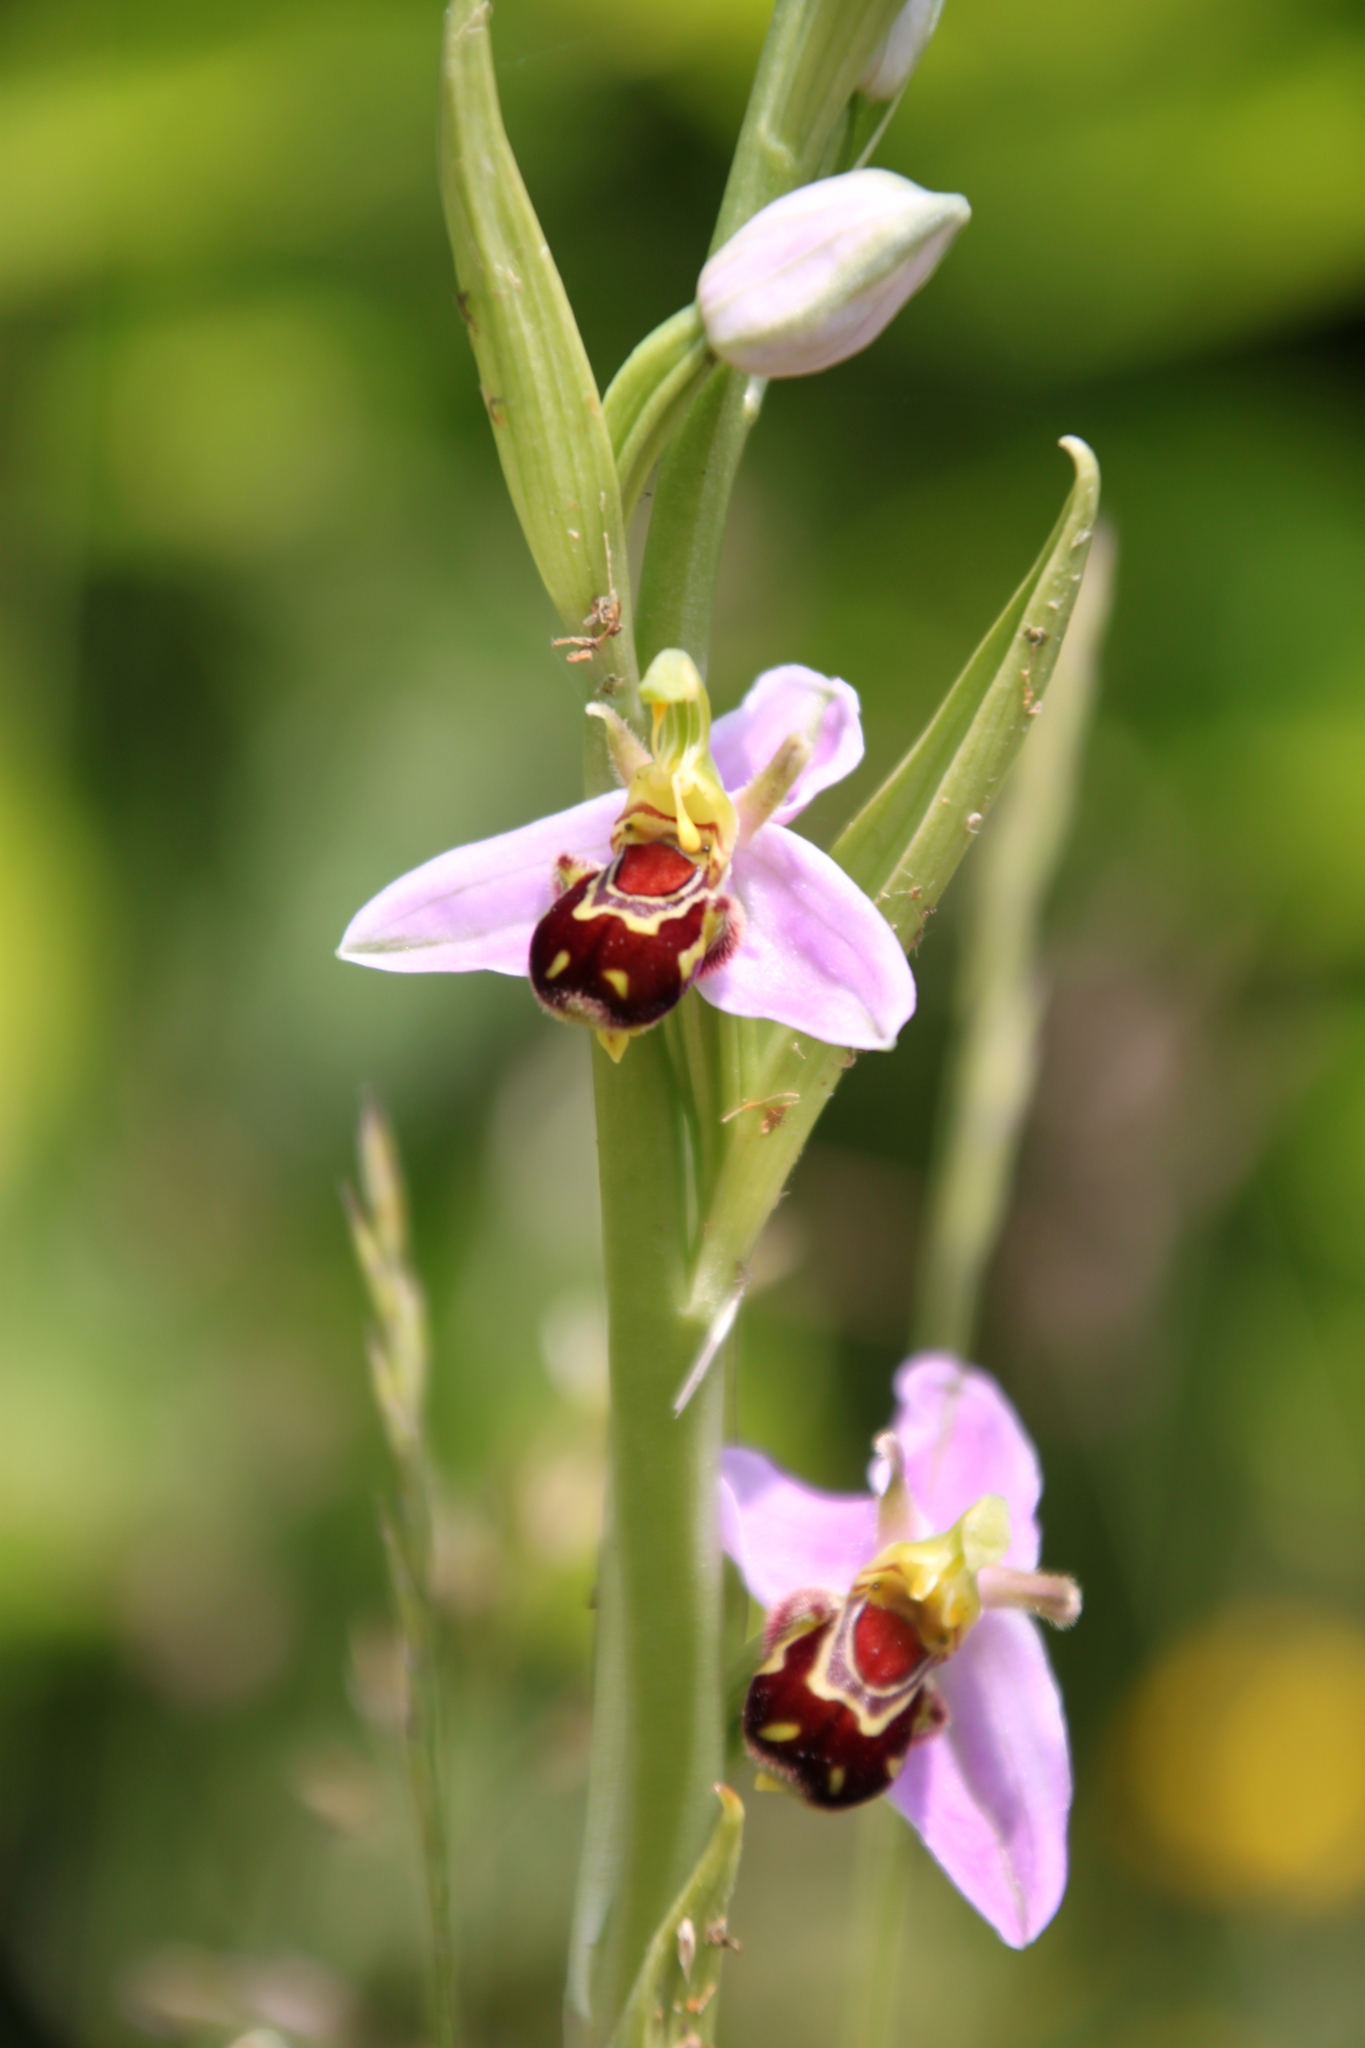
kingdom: Plantae
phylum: Tracheophyta
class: Liliopsida
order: Asparagales
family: Orchidaceae
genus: Ophrys
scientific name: Ophrys apifera
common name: Bee orchid
